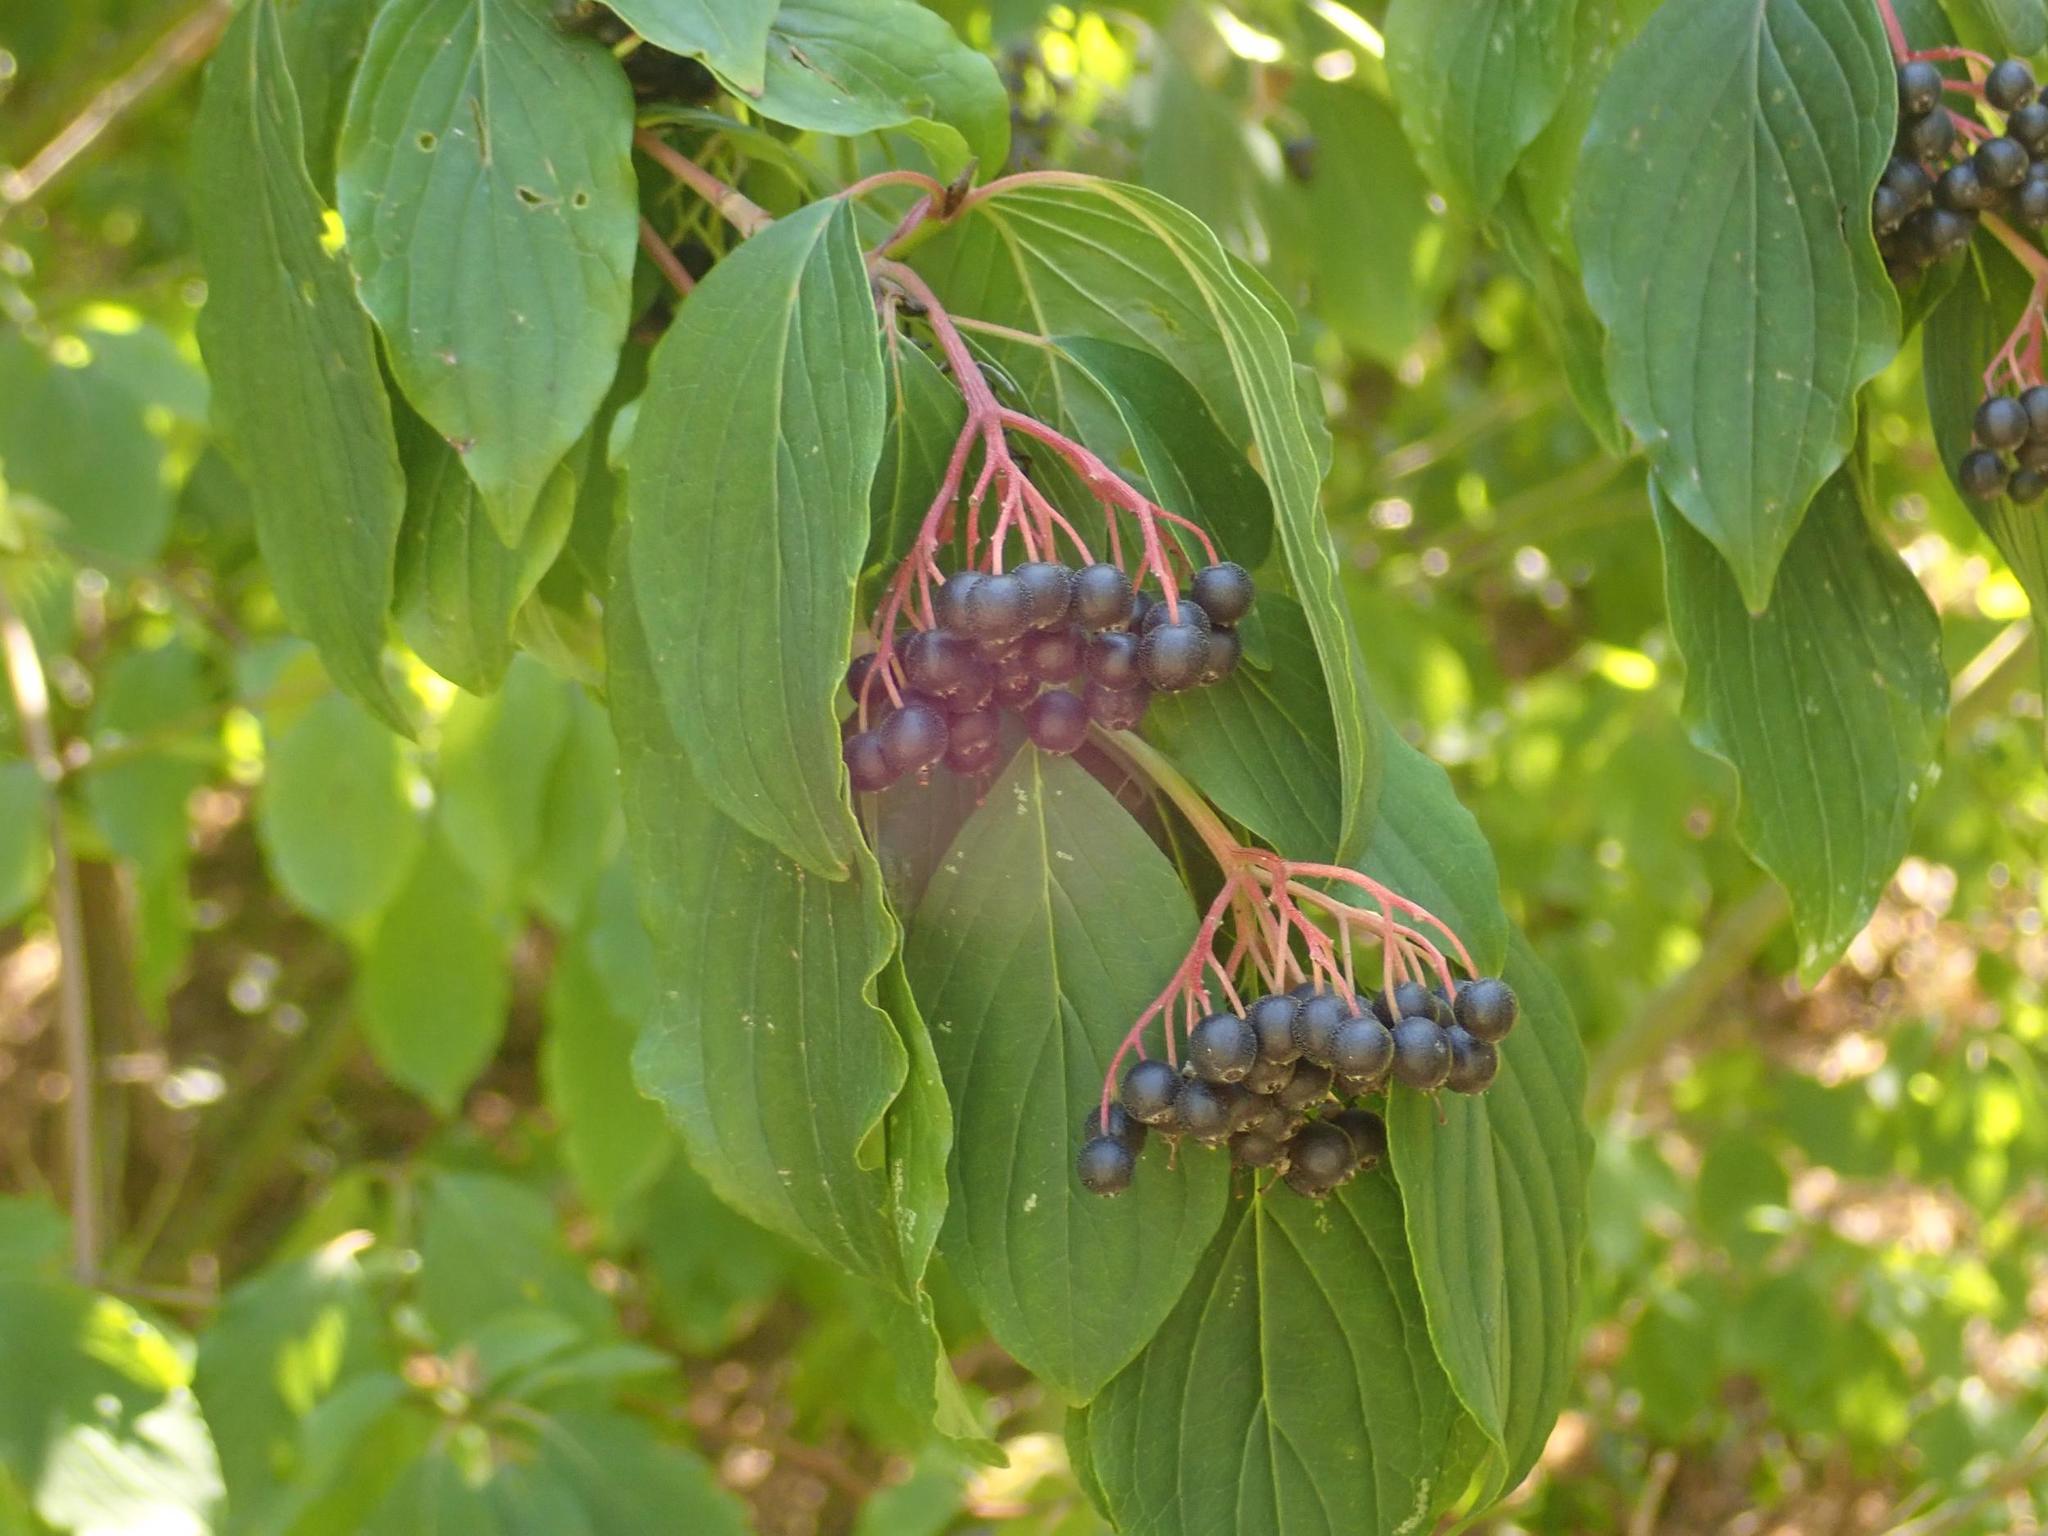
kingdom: Plantae
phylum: Tracheophyta
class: Magnoliopsida
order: Cornales
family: Cornaceae
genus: Cornus
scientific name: Cornus sanguinea
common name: Dogwood
